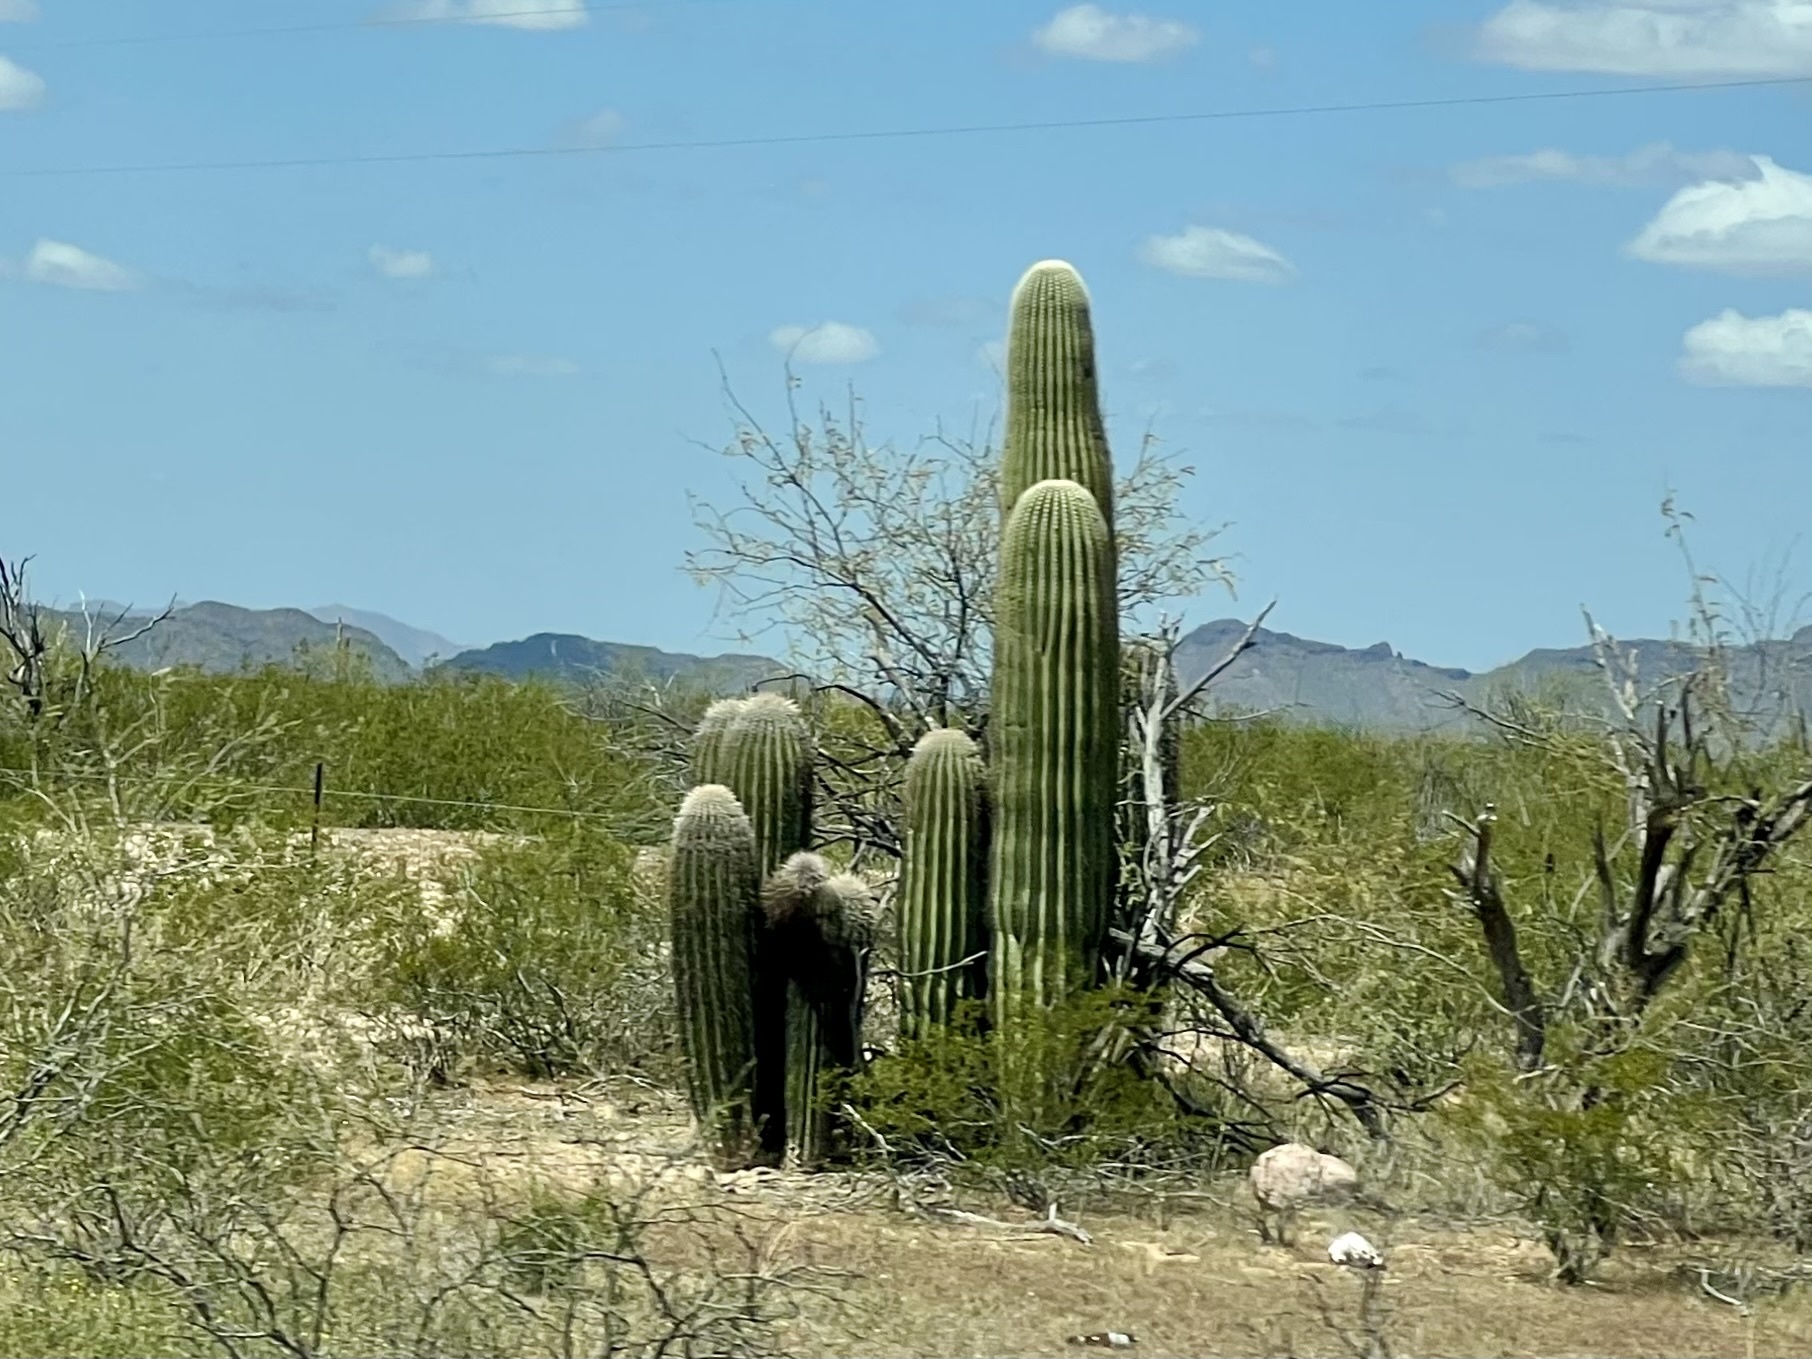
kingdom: Plantae
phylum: Tracheophyta
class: Magnoliopsida
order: Caryophyllales
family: Cactaceae
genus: Carnegiea
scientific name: Carnegiea gigantea
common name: Saguaro
